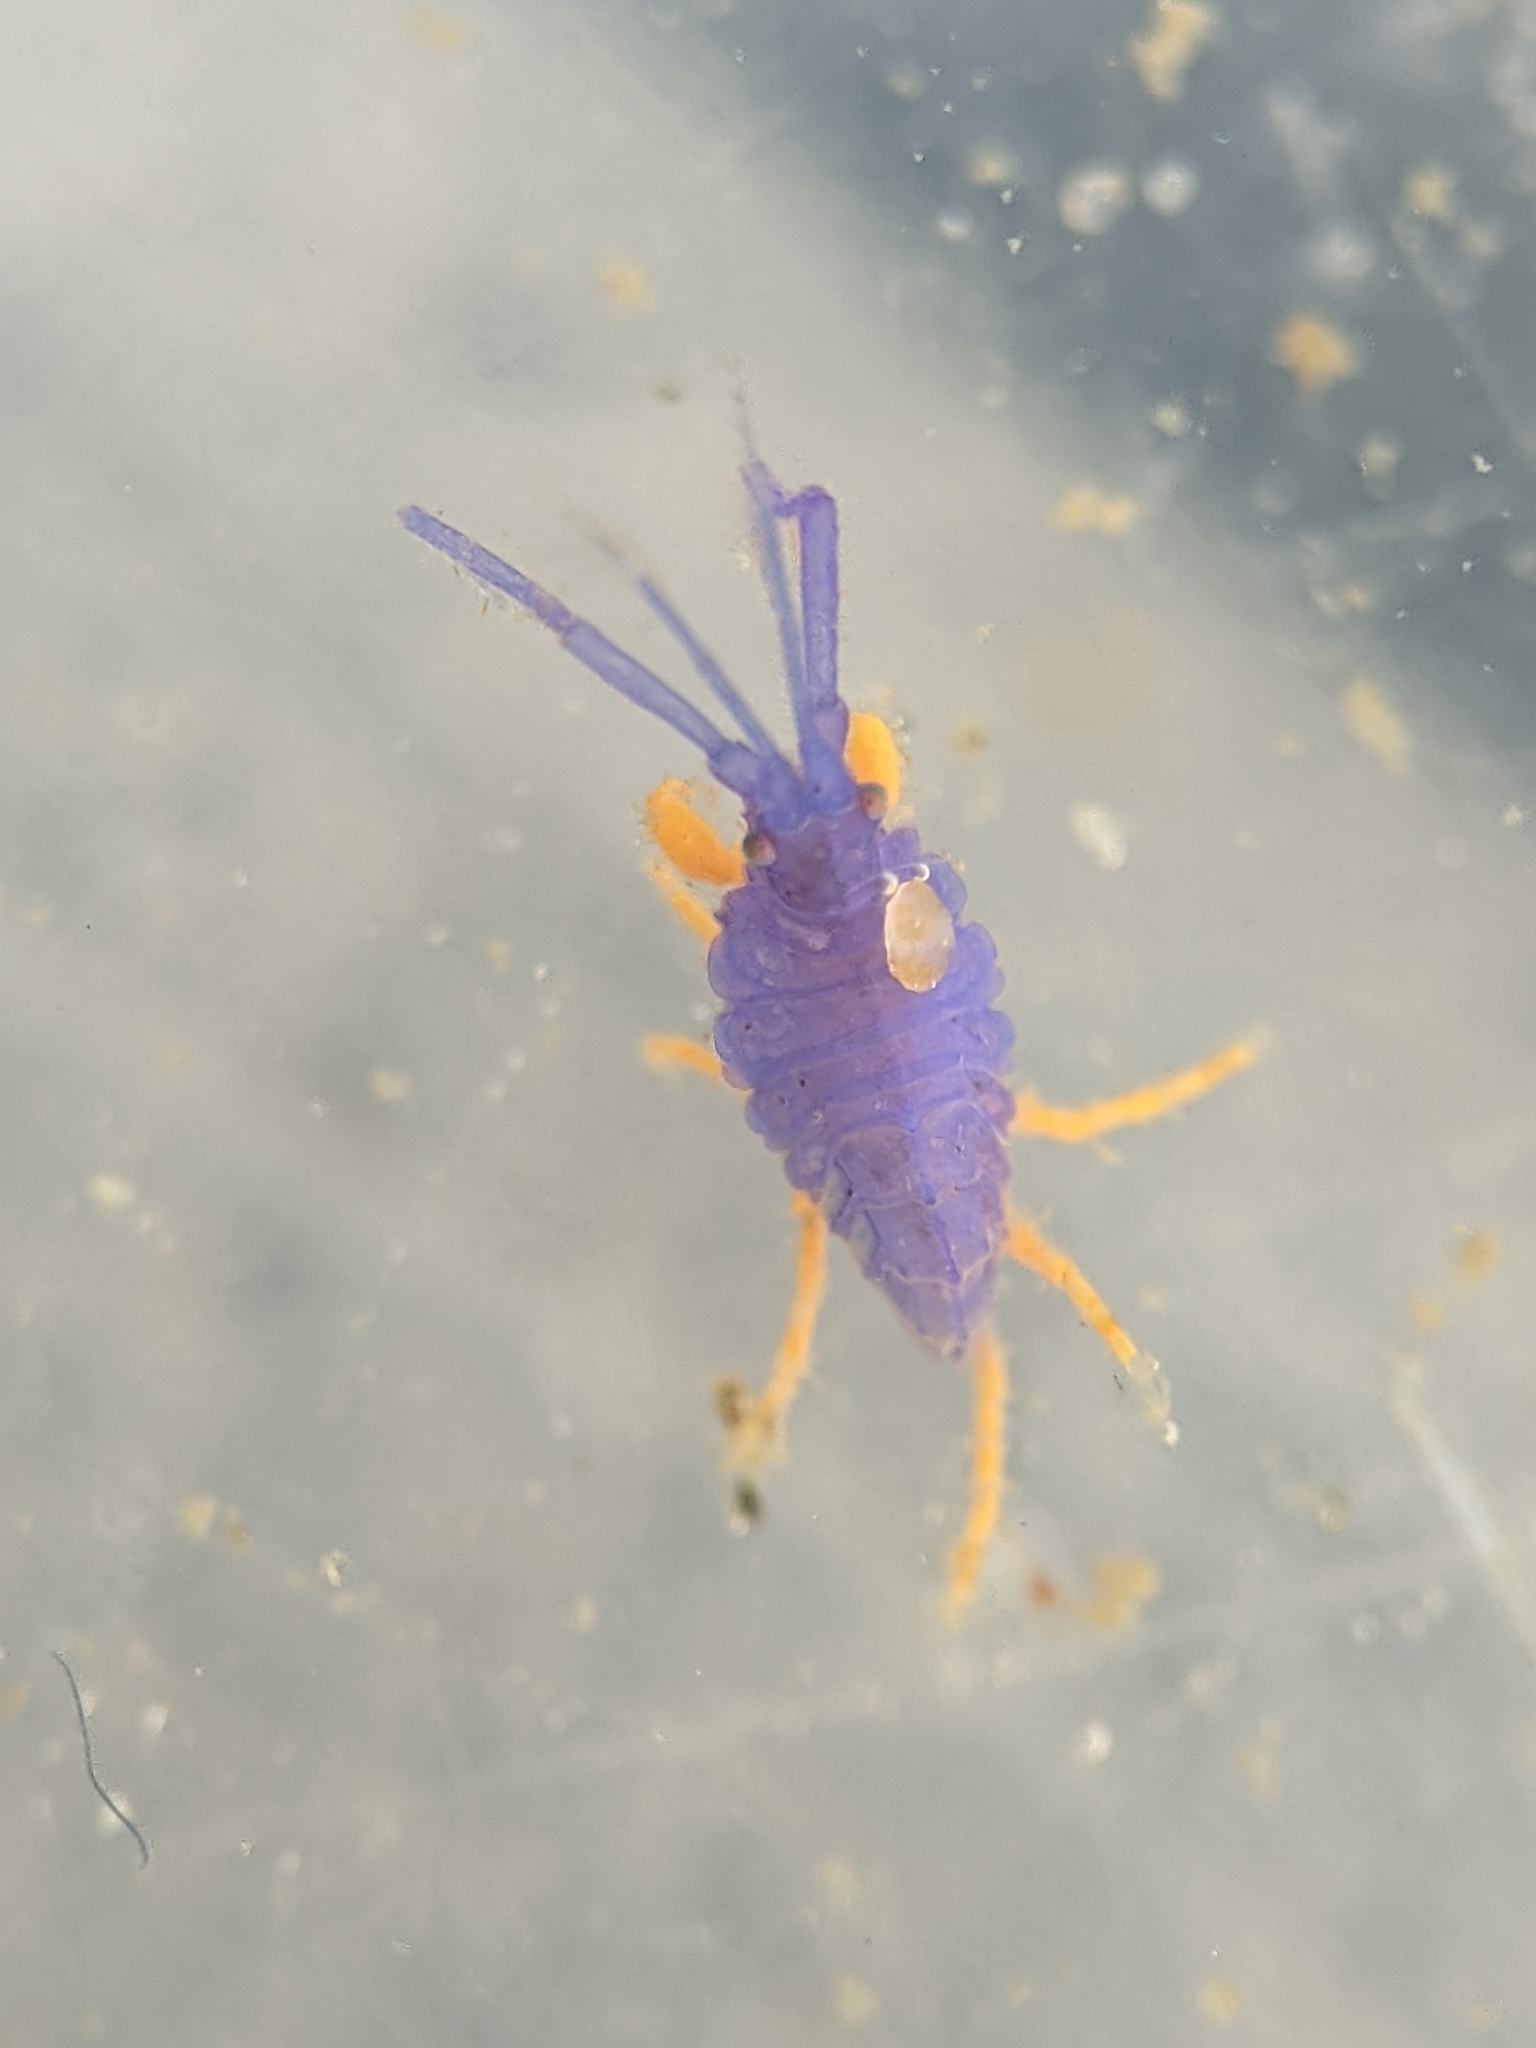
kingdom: Animalia
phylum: Arthropoda
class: Malacostraca
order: Amphipoda
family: Podoceridae
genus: Podocerus
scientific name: Podocerus cristatus
